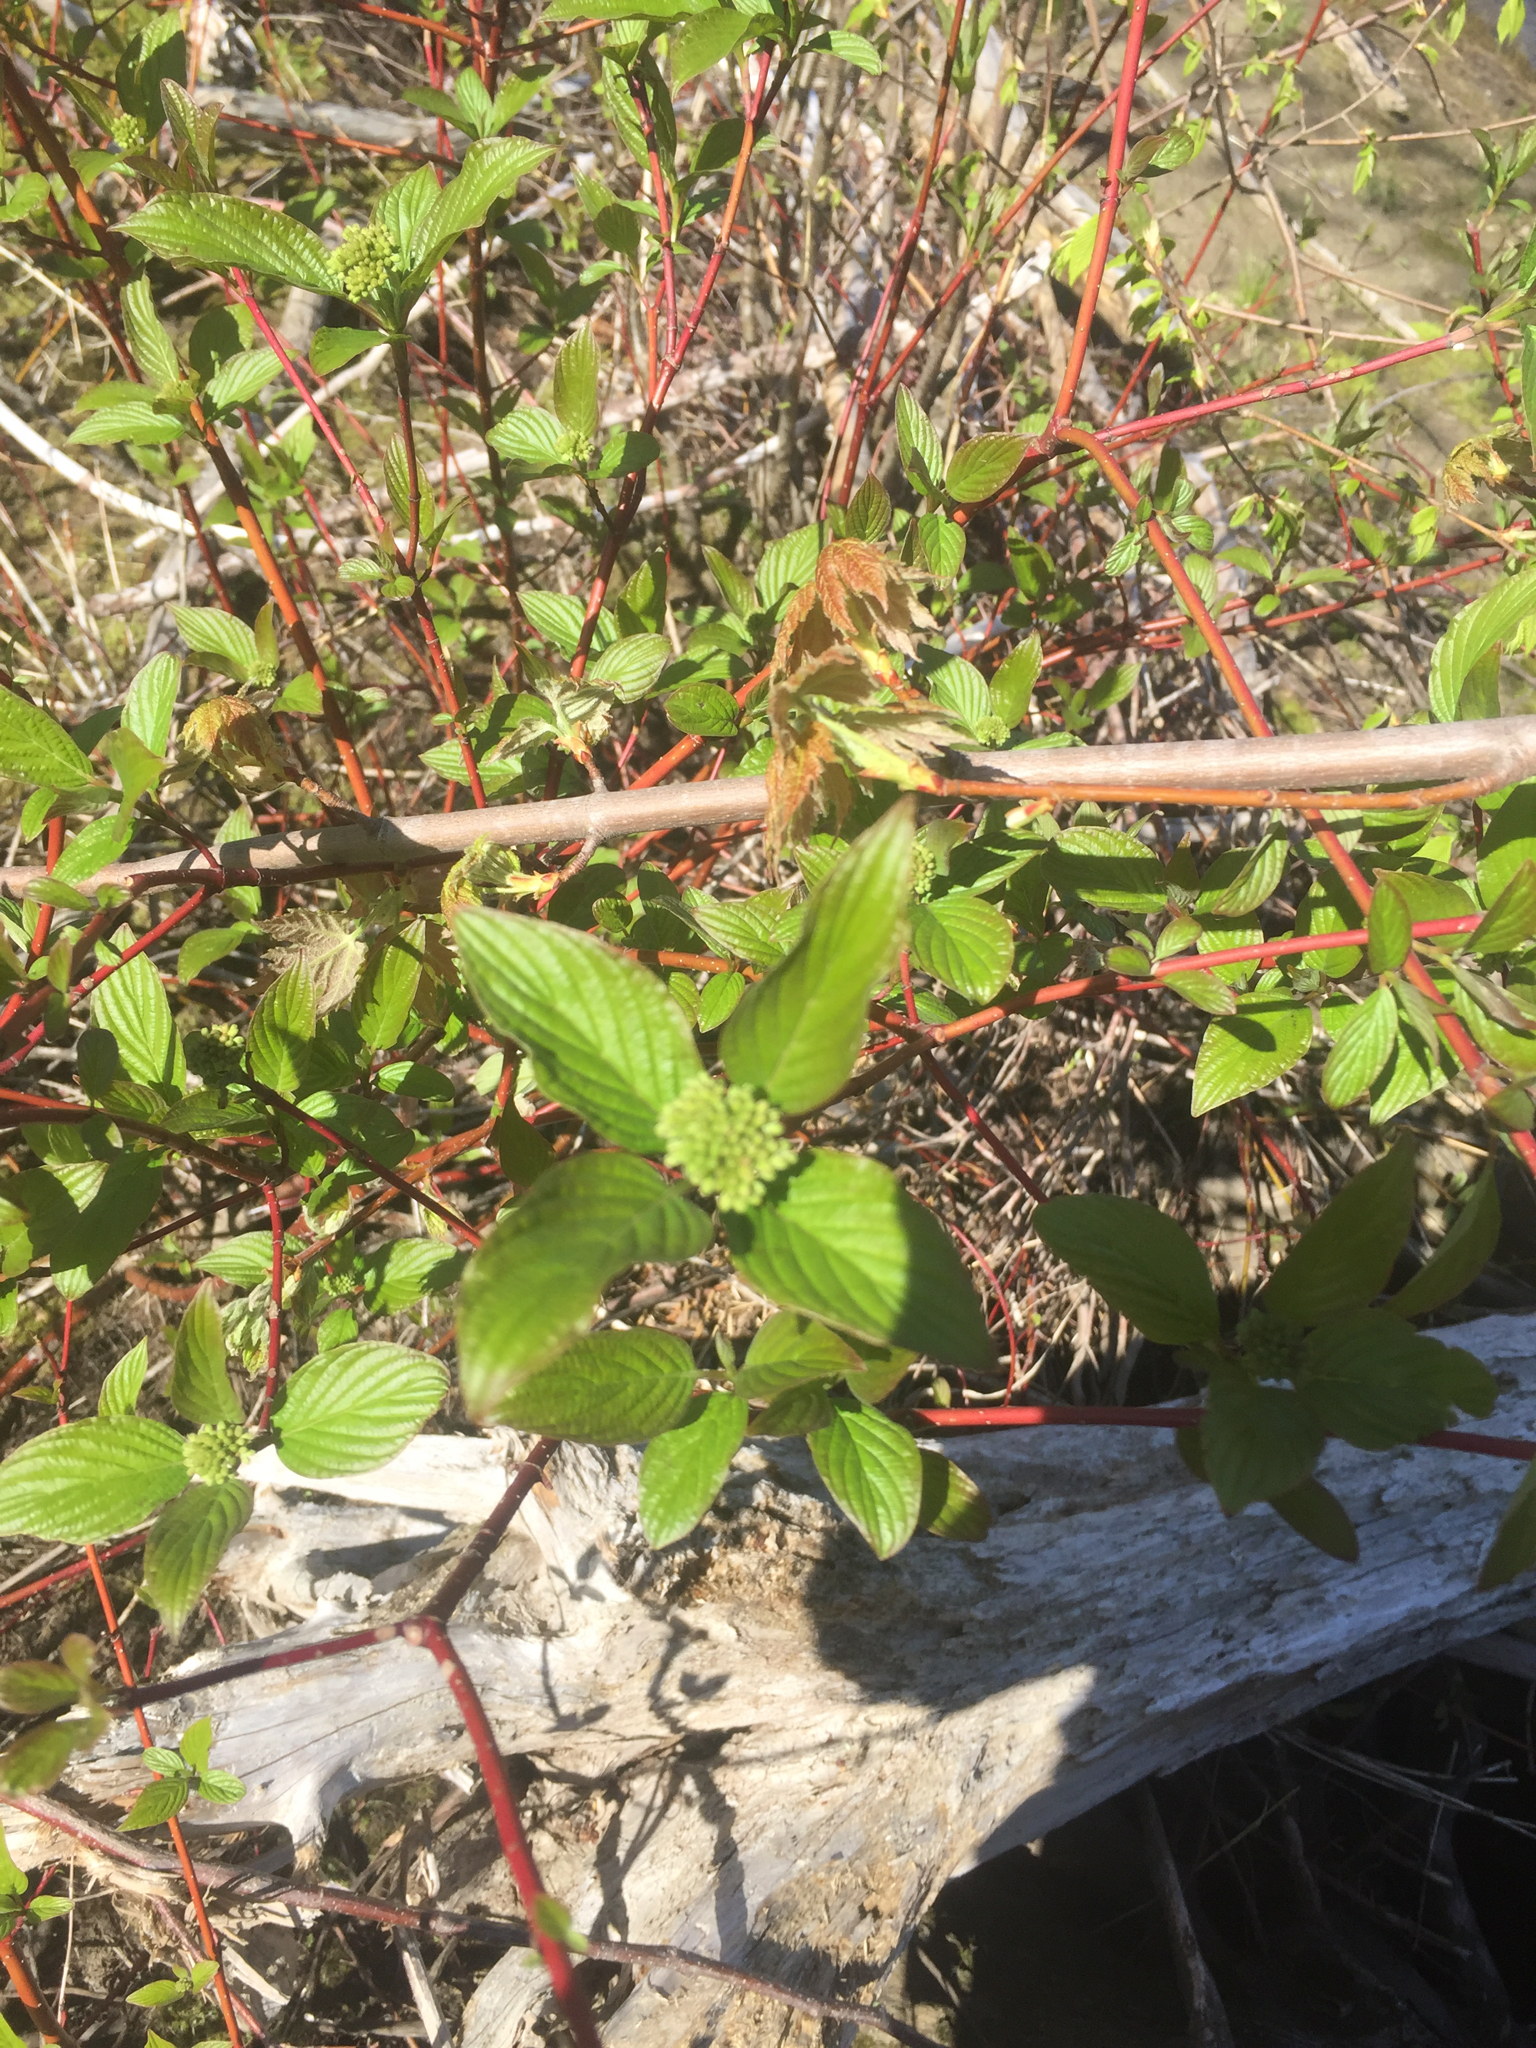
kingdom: Plantae
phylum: Tracheophyta
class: Magnoliopsida
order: Cornales
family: Cornaceae
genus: Cornus
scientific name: Cornus sericea
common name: Red-osier dogwood
